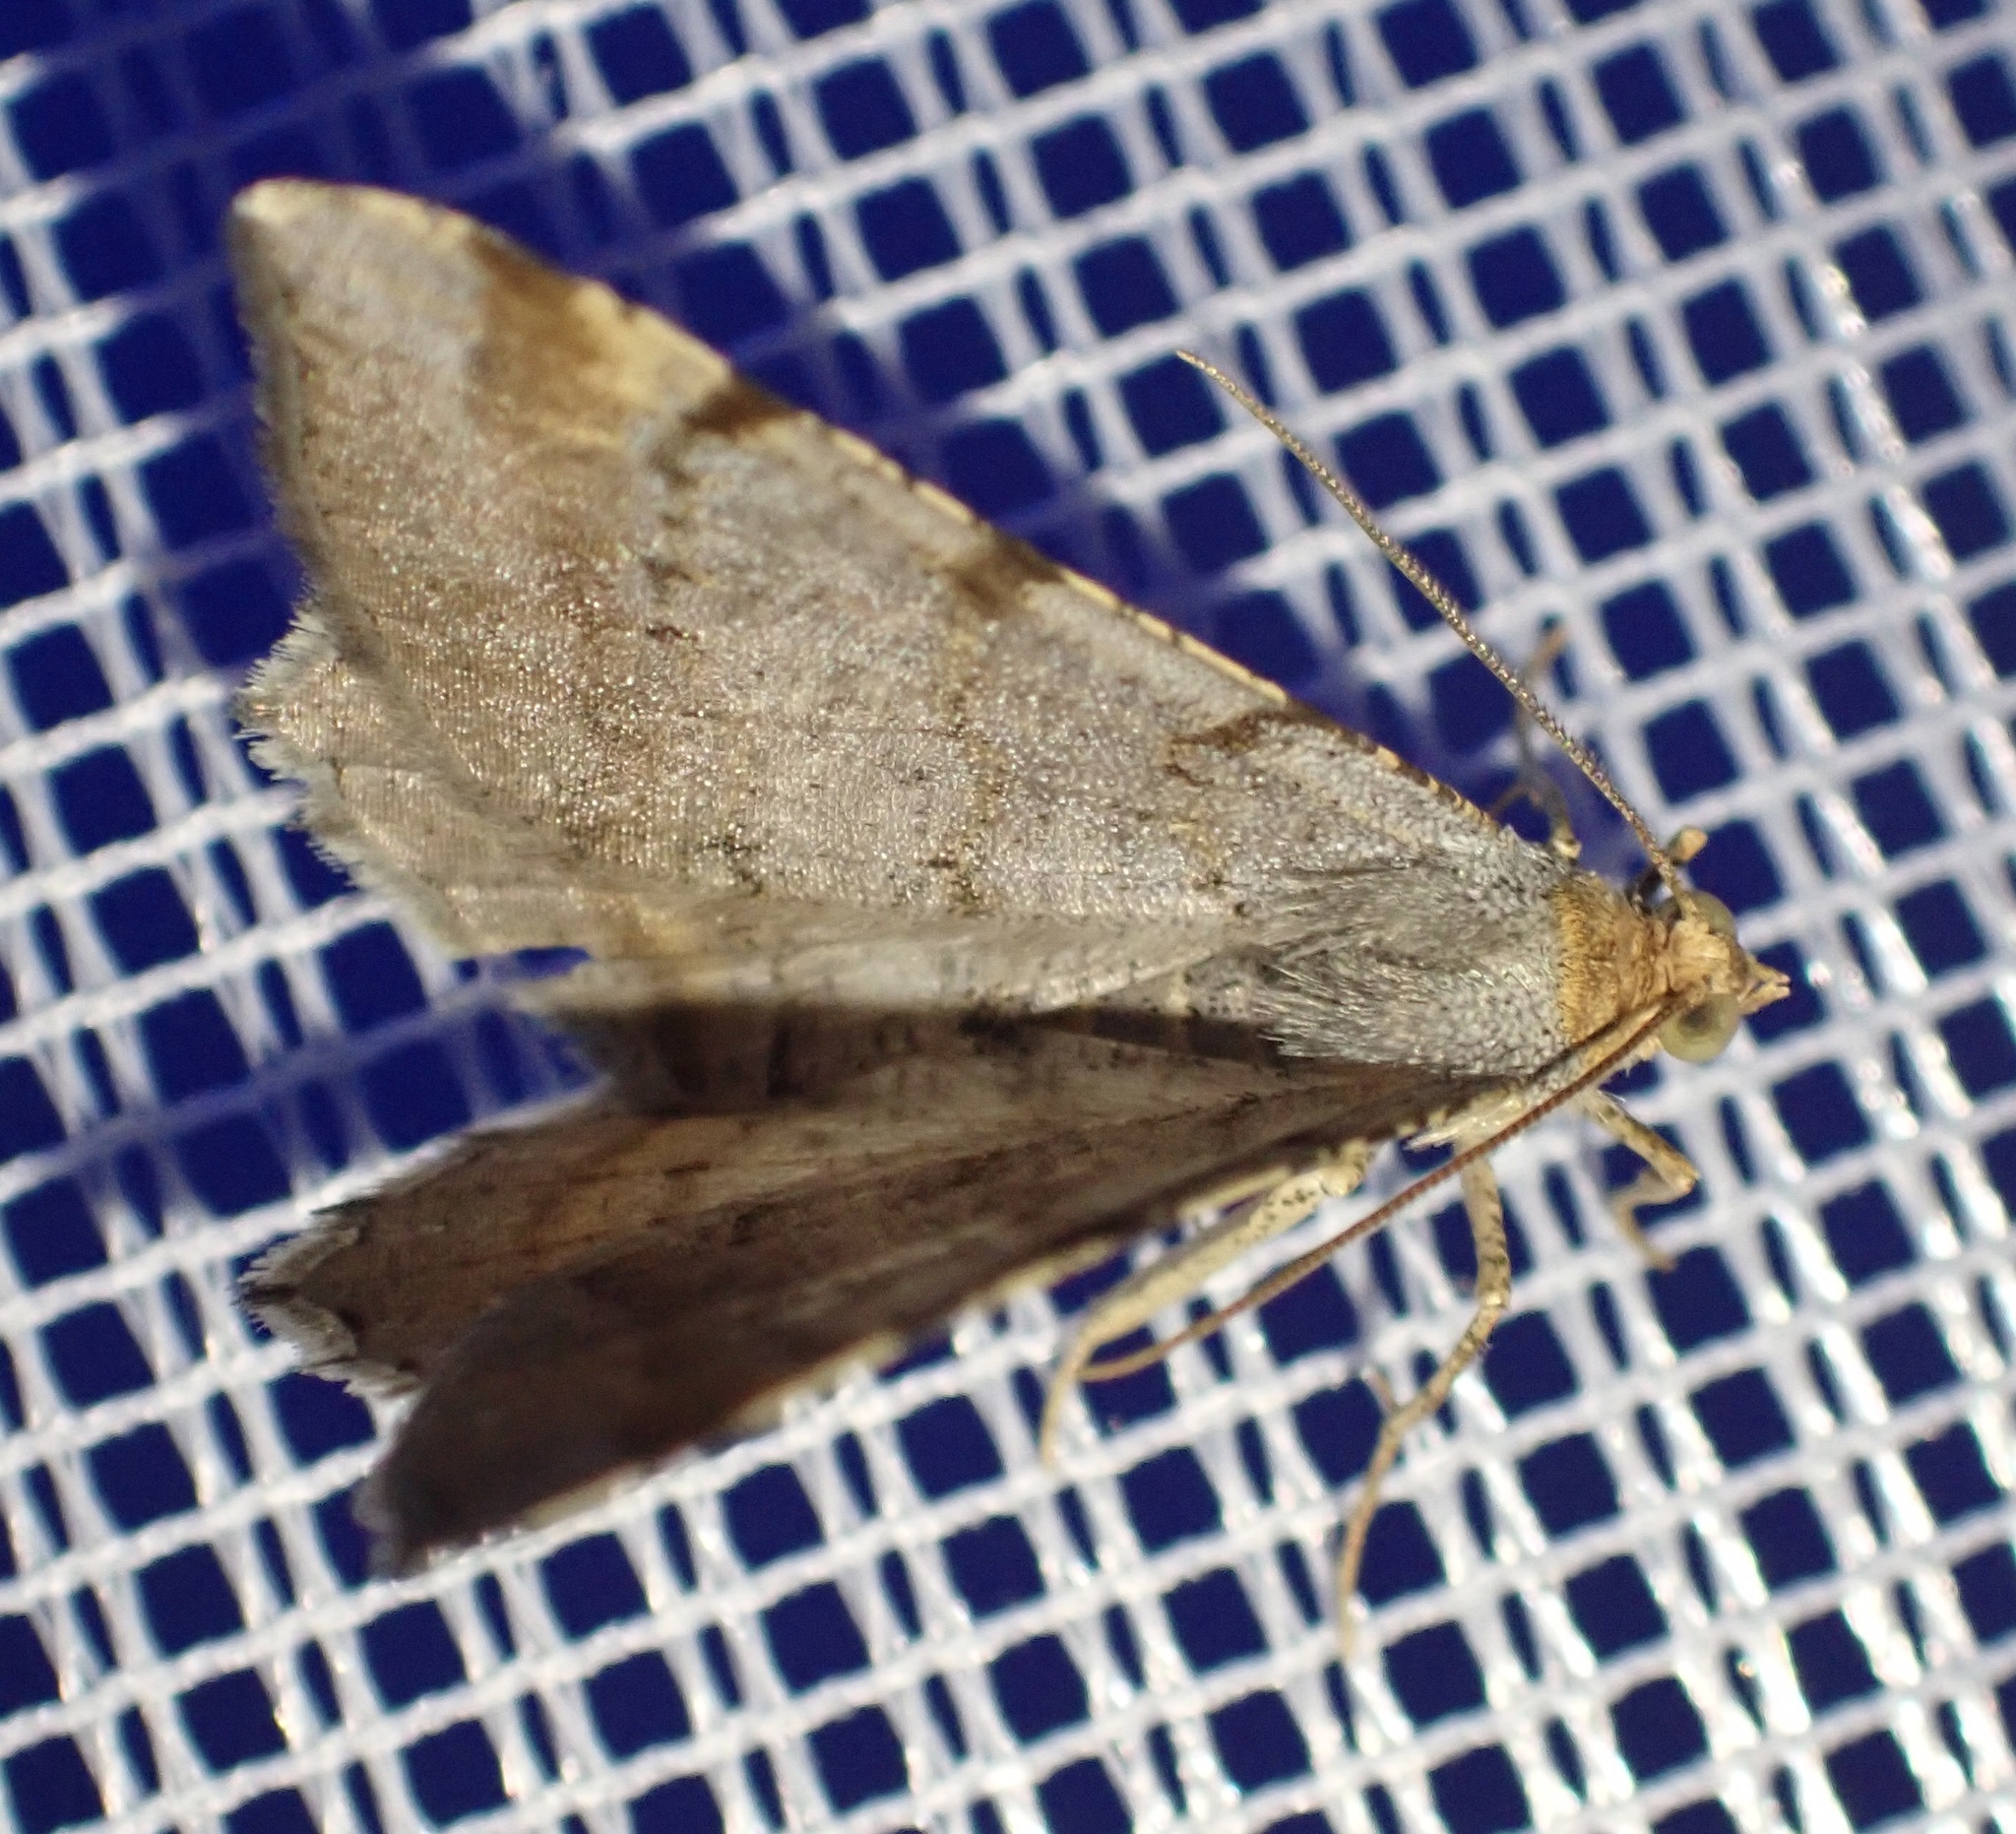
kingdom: Animalia
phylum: Arthropoda
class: Insecta
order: Lepidoptera
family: Geometridae
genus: Macaria
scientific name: Macaria liturata
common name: Tawny-barred angle
